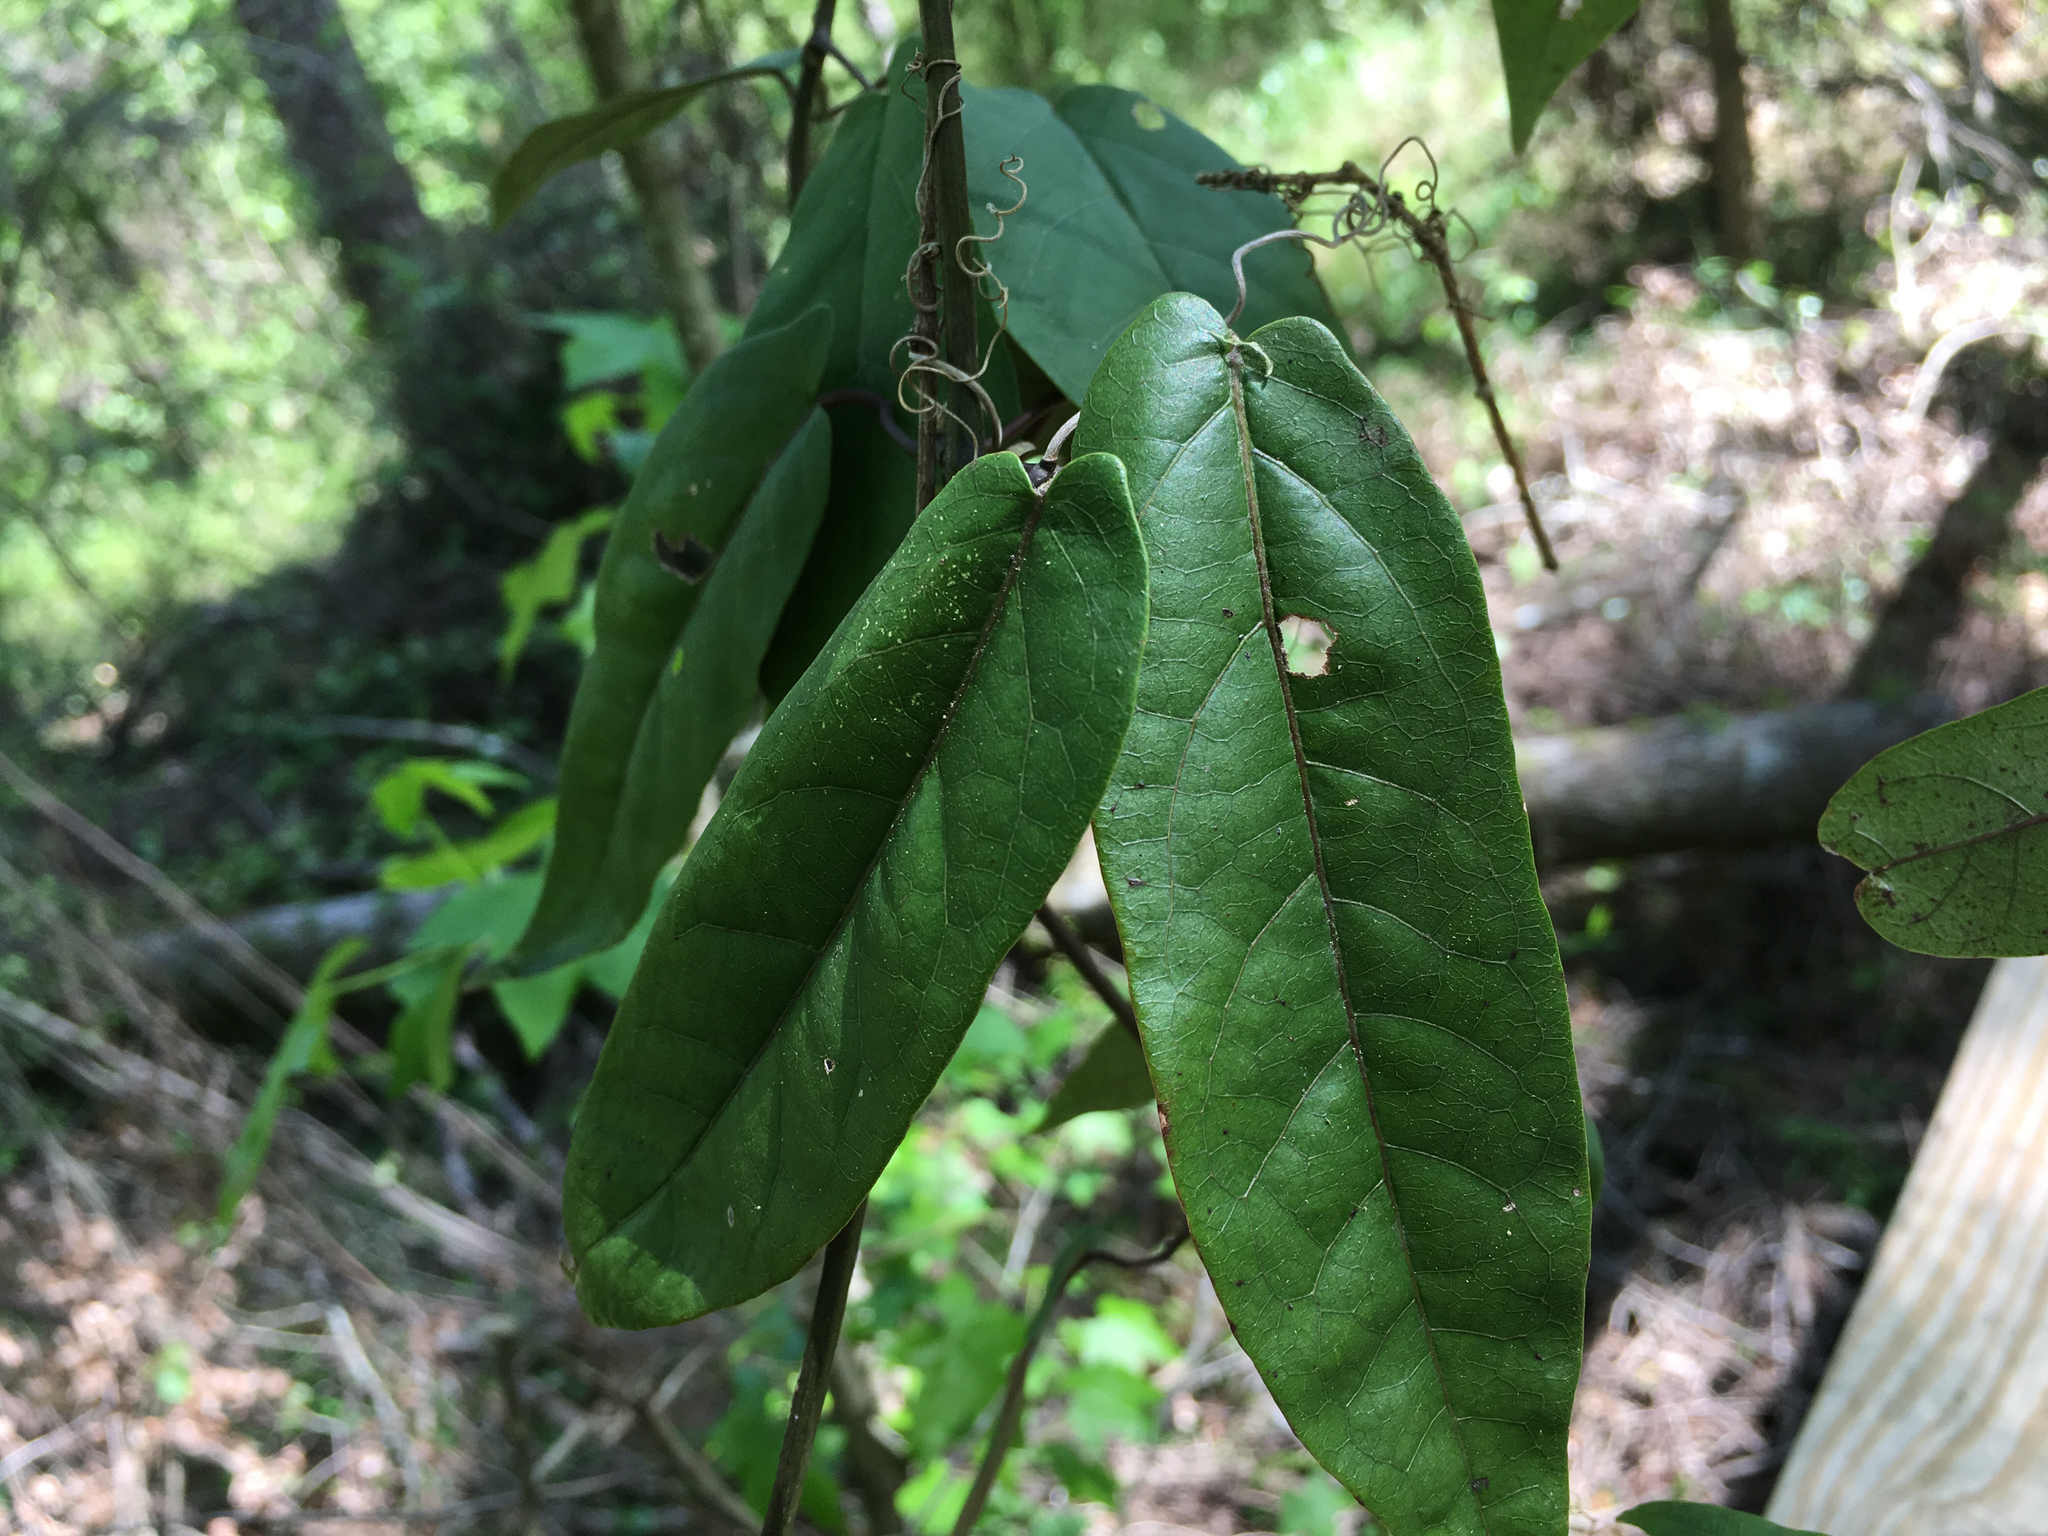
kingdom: Plantae
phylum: Tracheophyta
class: Magnoliopsida
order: Lamiales
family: Bignoniaceae
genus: Bignonia
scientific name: Bignonia capreolata
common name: Crossvine
